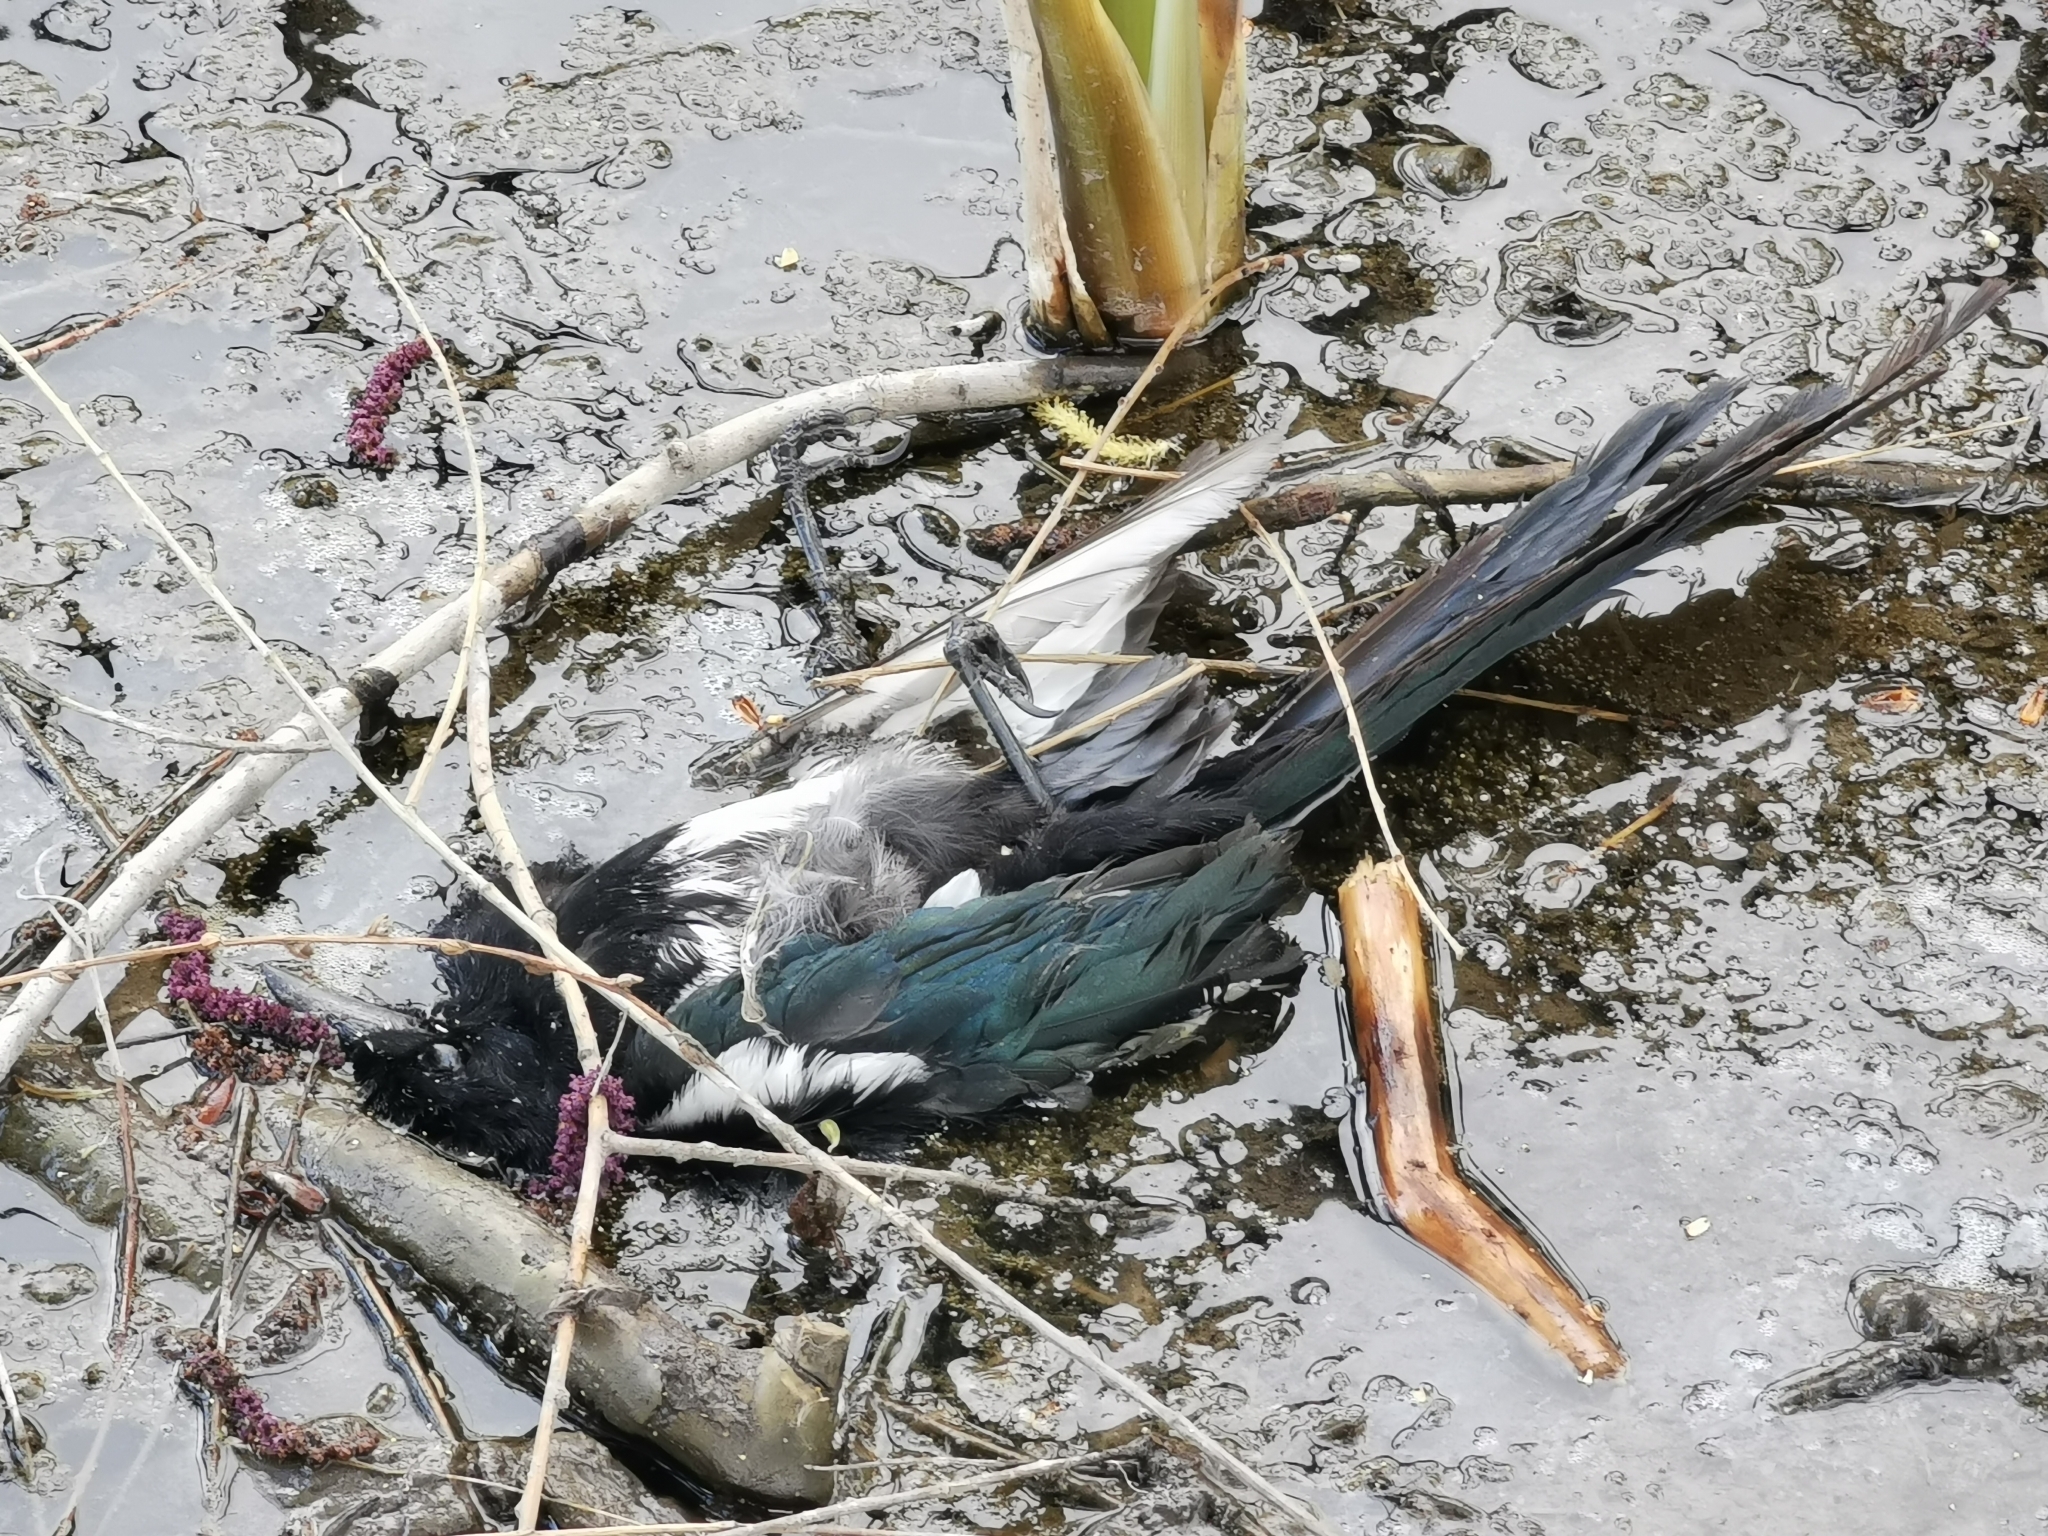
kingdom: Animalia
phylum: Chordata
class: Aves
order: Passeriformes
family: Corvidae
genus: Pica
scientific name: Pica hudsonia
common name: Black-billed magpie
